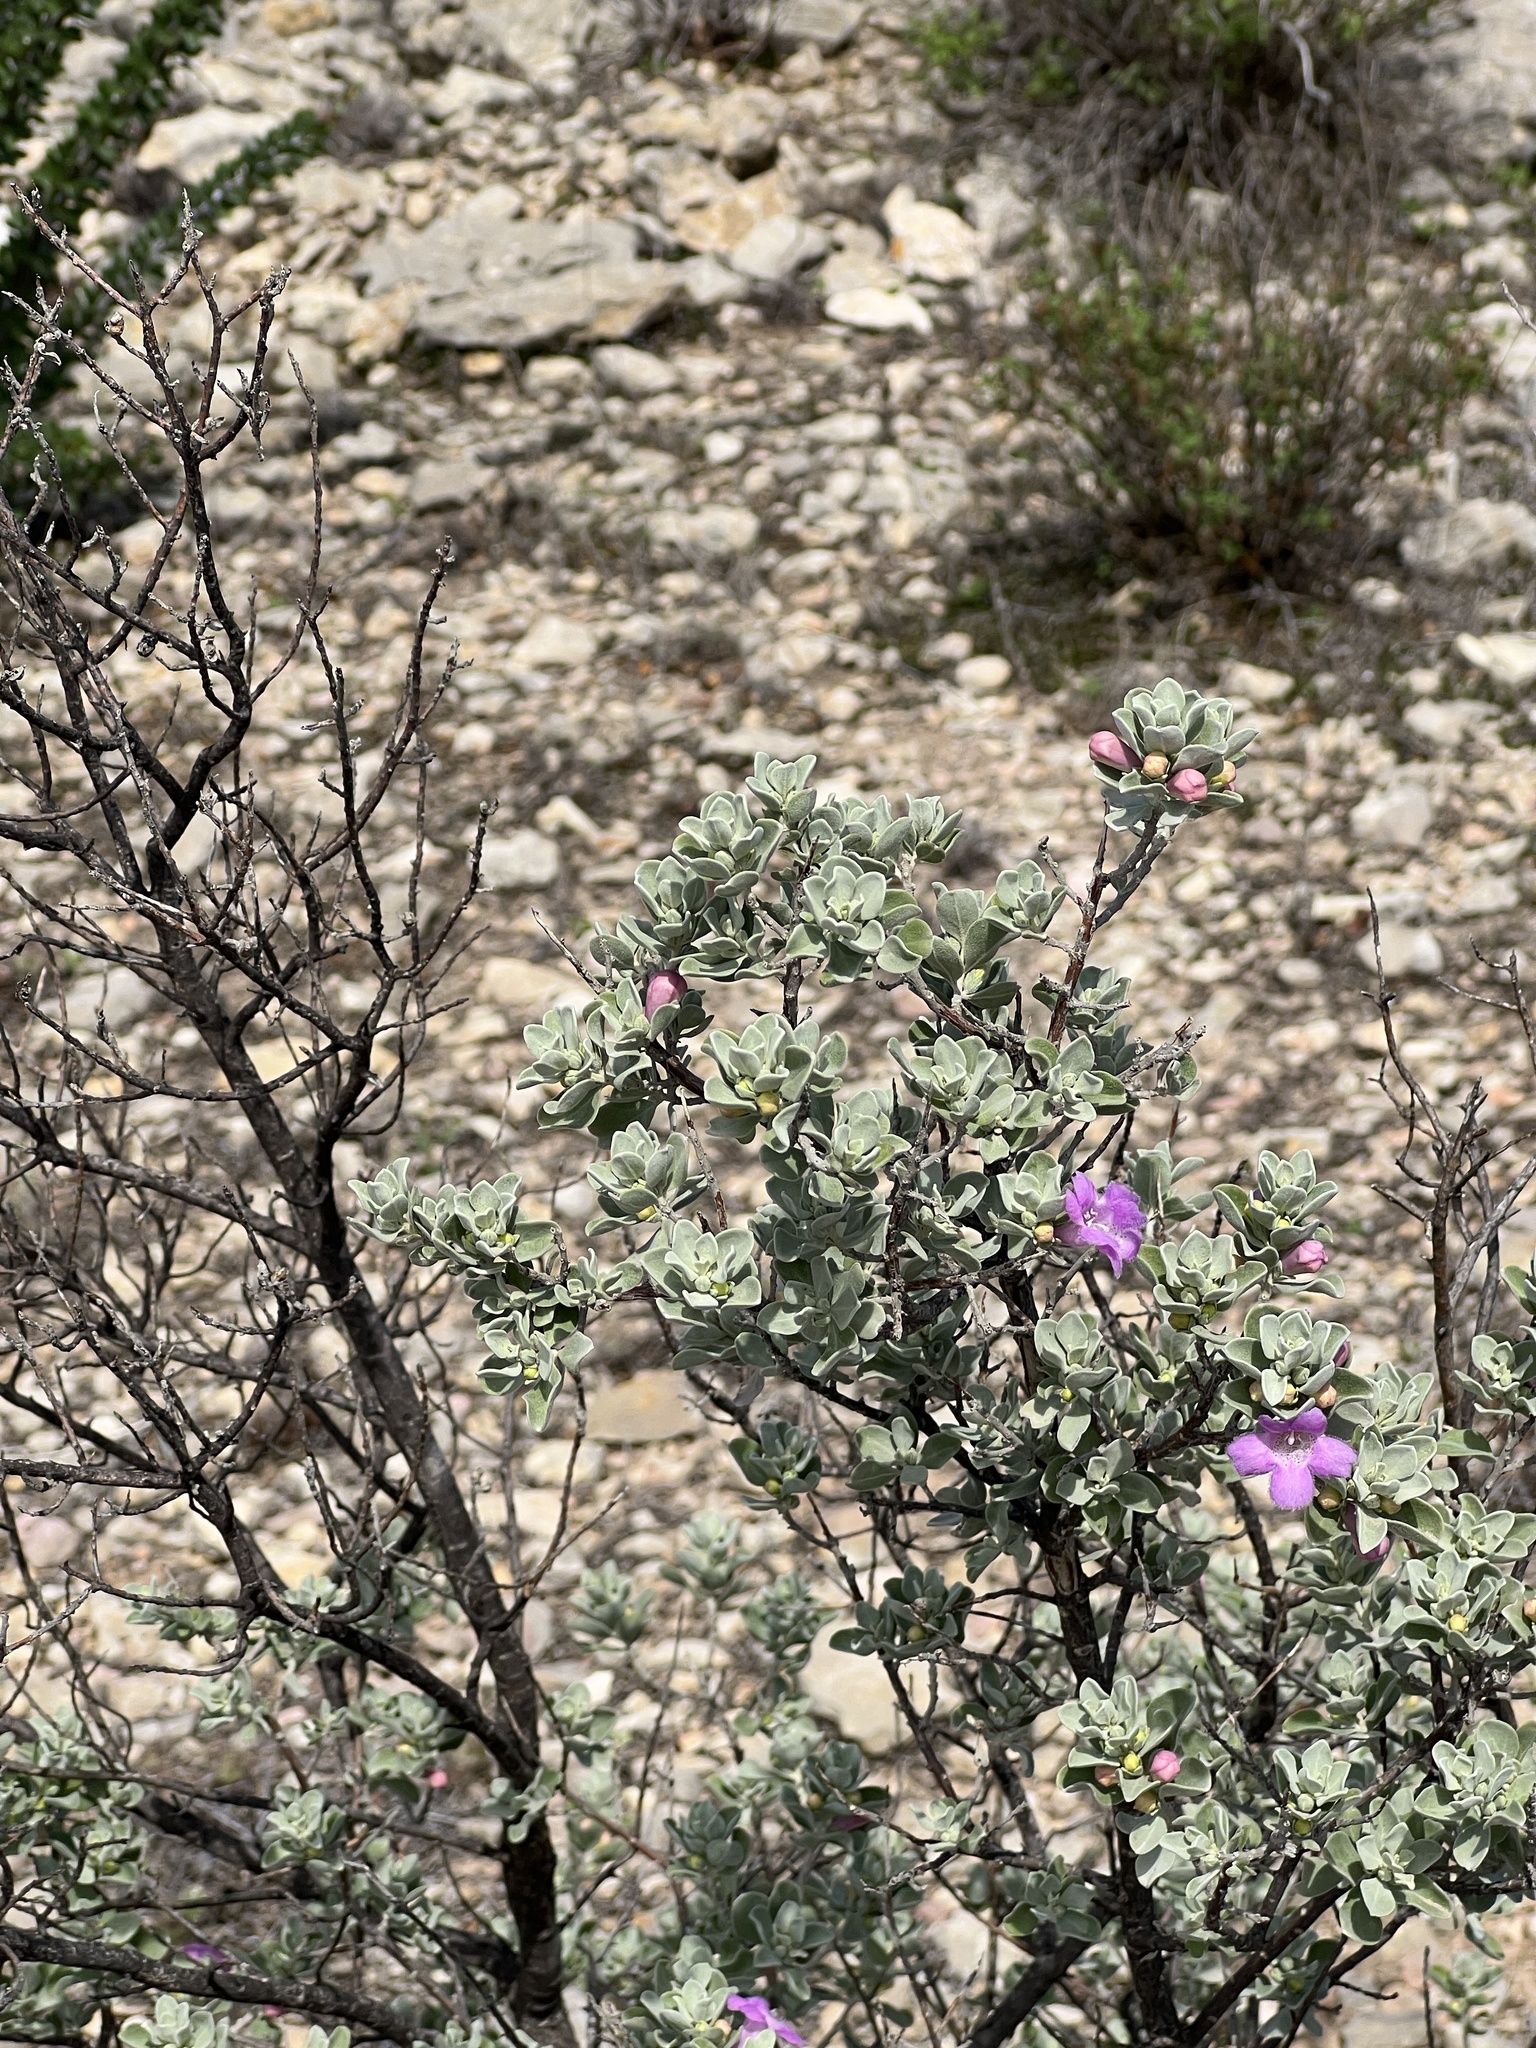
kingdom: Plantae
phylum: Tracheophyta
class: Magnoliopsida
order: Lamiales
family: Scrophulariaceae
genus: Leucophyllum
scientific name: Leucophyllum frutescens
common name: Texas silverleaf
